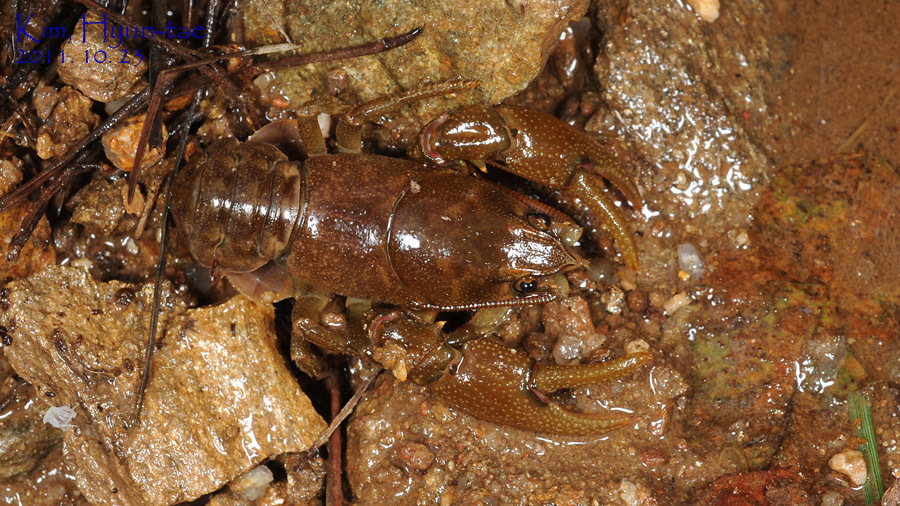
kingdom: Animalia
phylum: Arthropoda
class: Malacostraca
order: Decapoda
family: Cambaroididae
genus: Cambaroides
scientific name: Cambaroides similis
